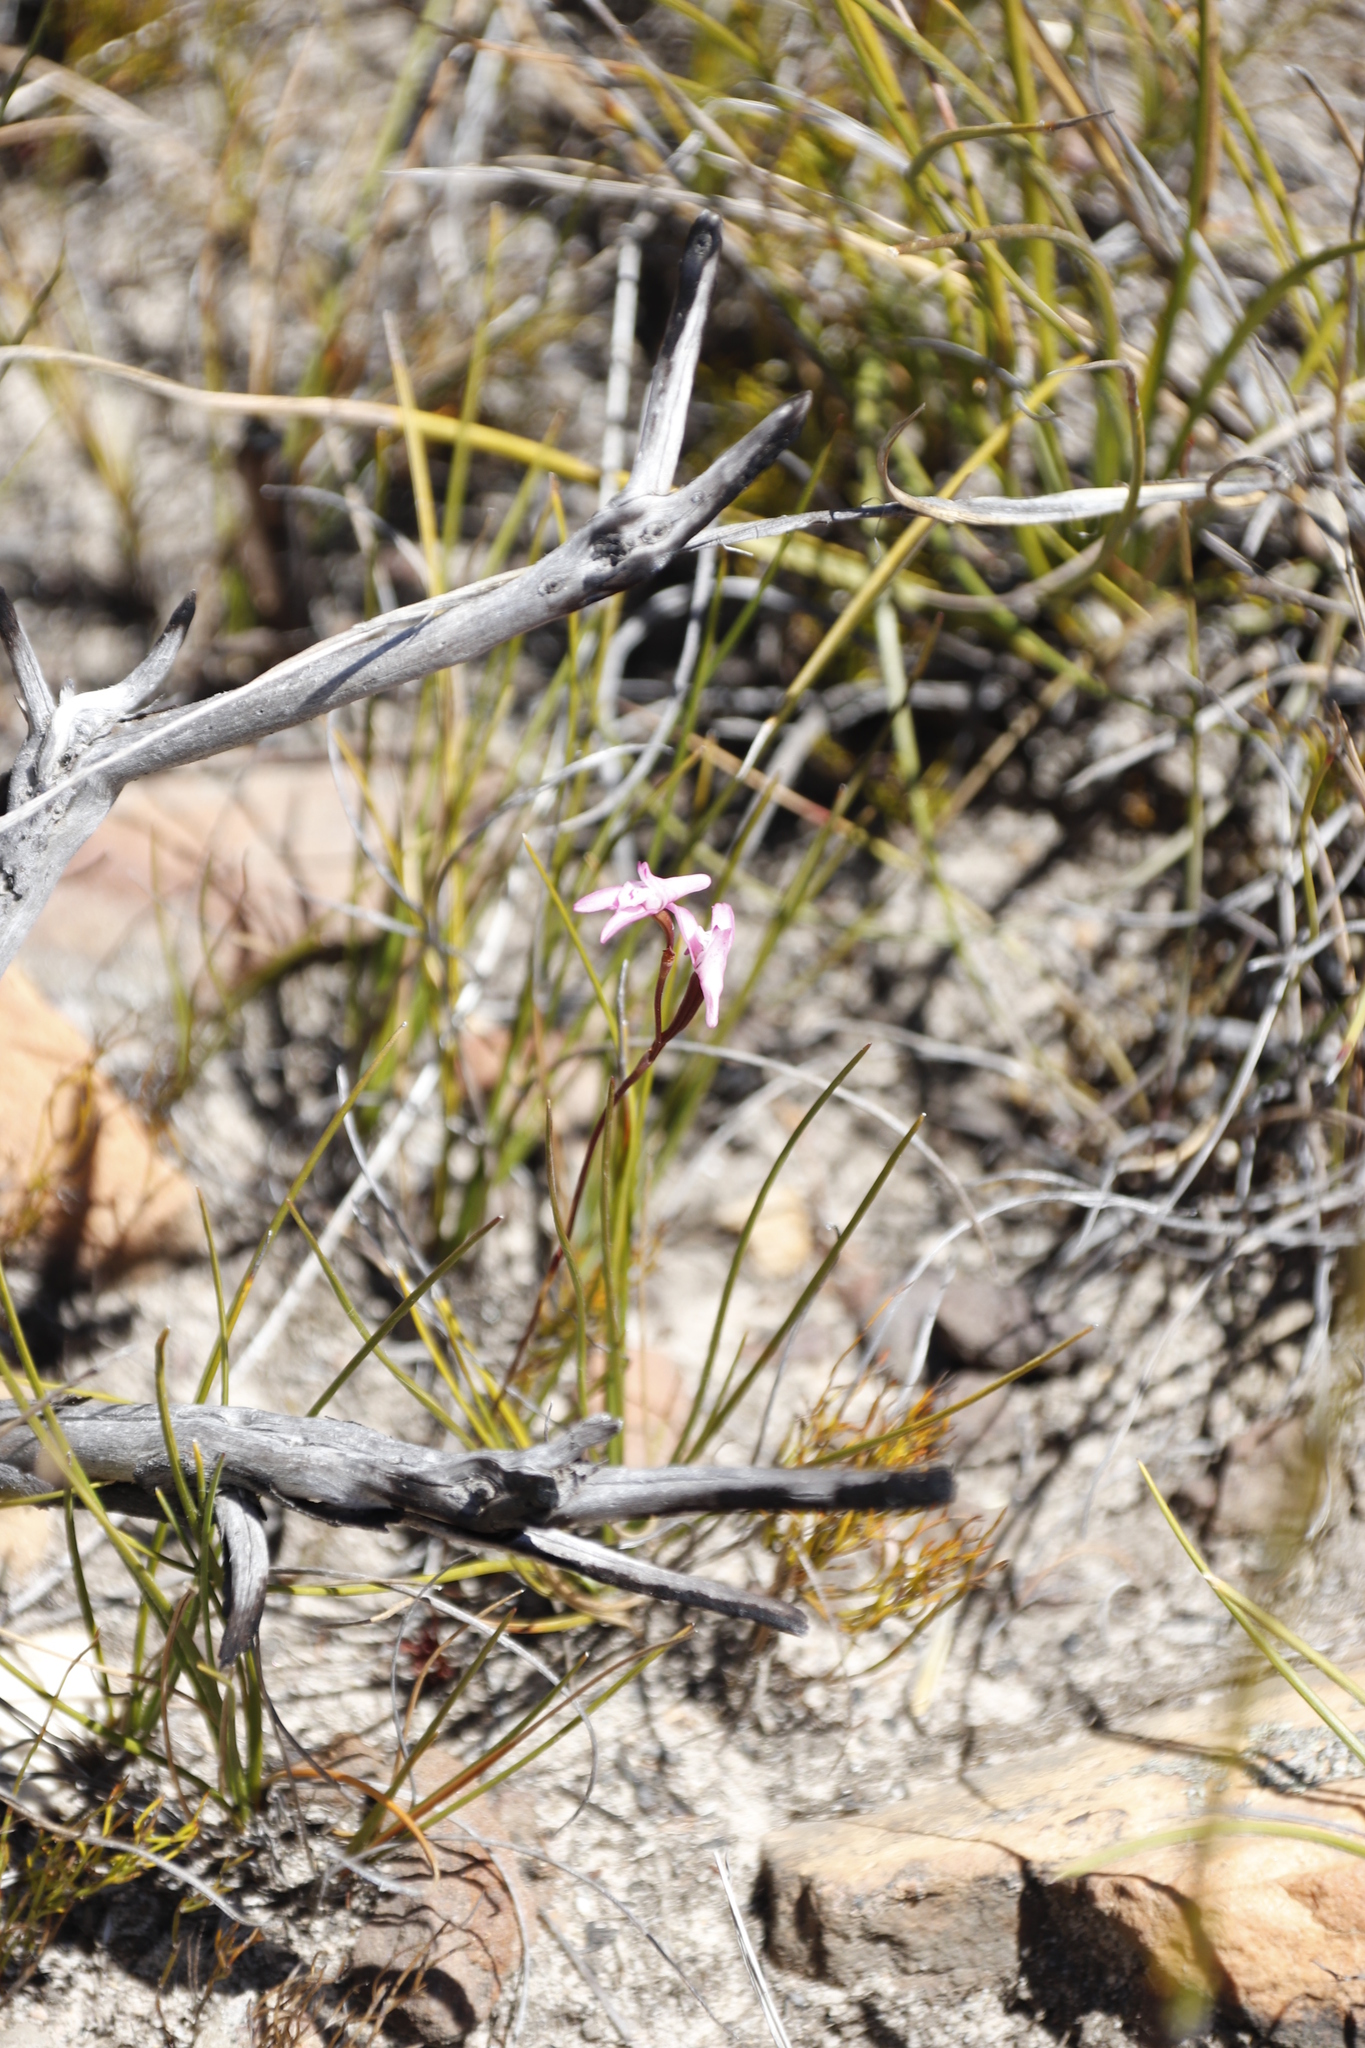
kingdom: Plantae
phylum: Tracheophyta
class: Liliopsida
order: Asparagales
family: Orchidaceae
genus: Disa
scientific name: Disa inflexa
